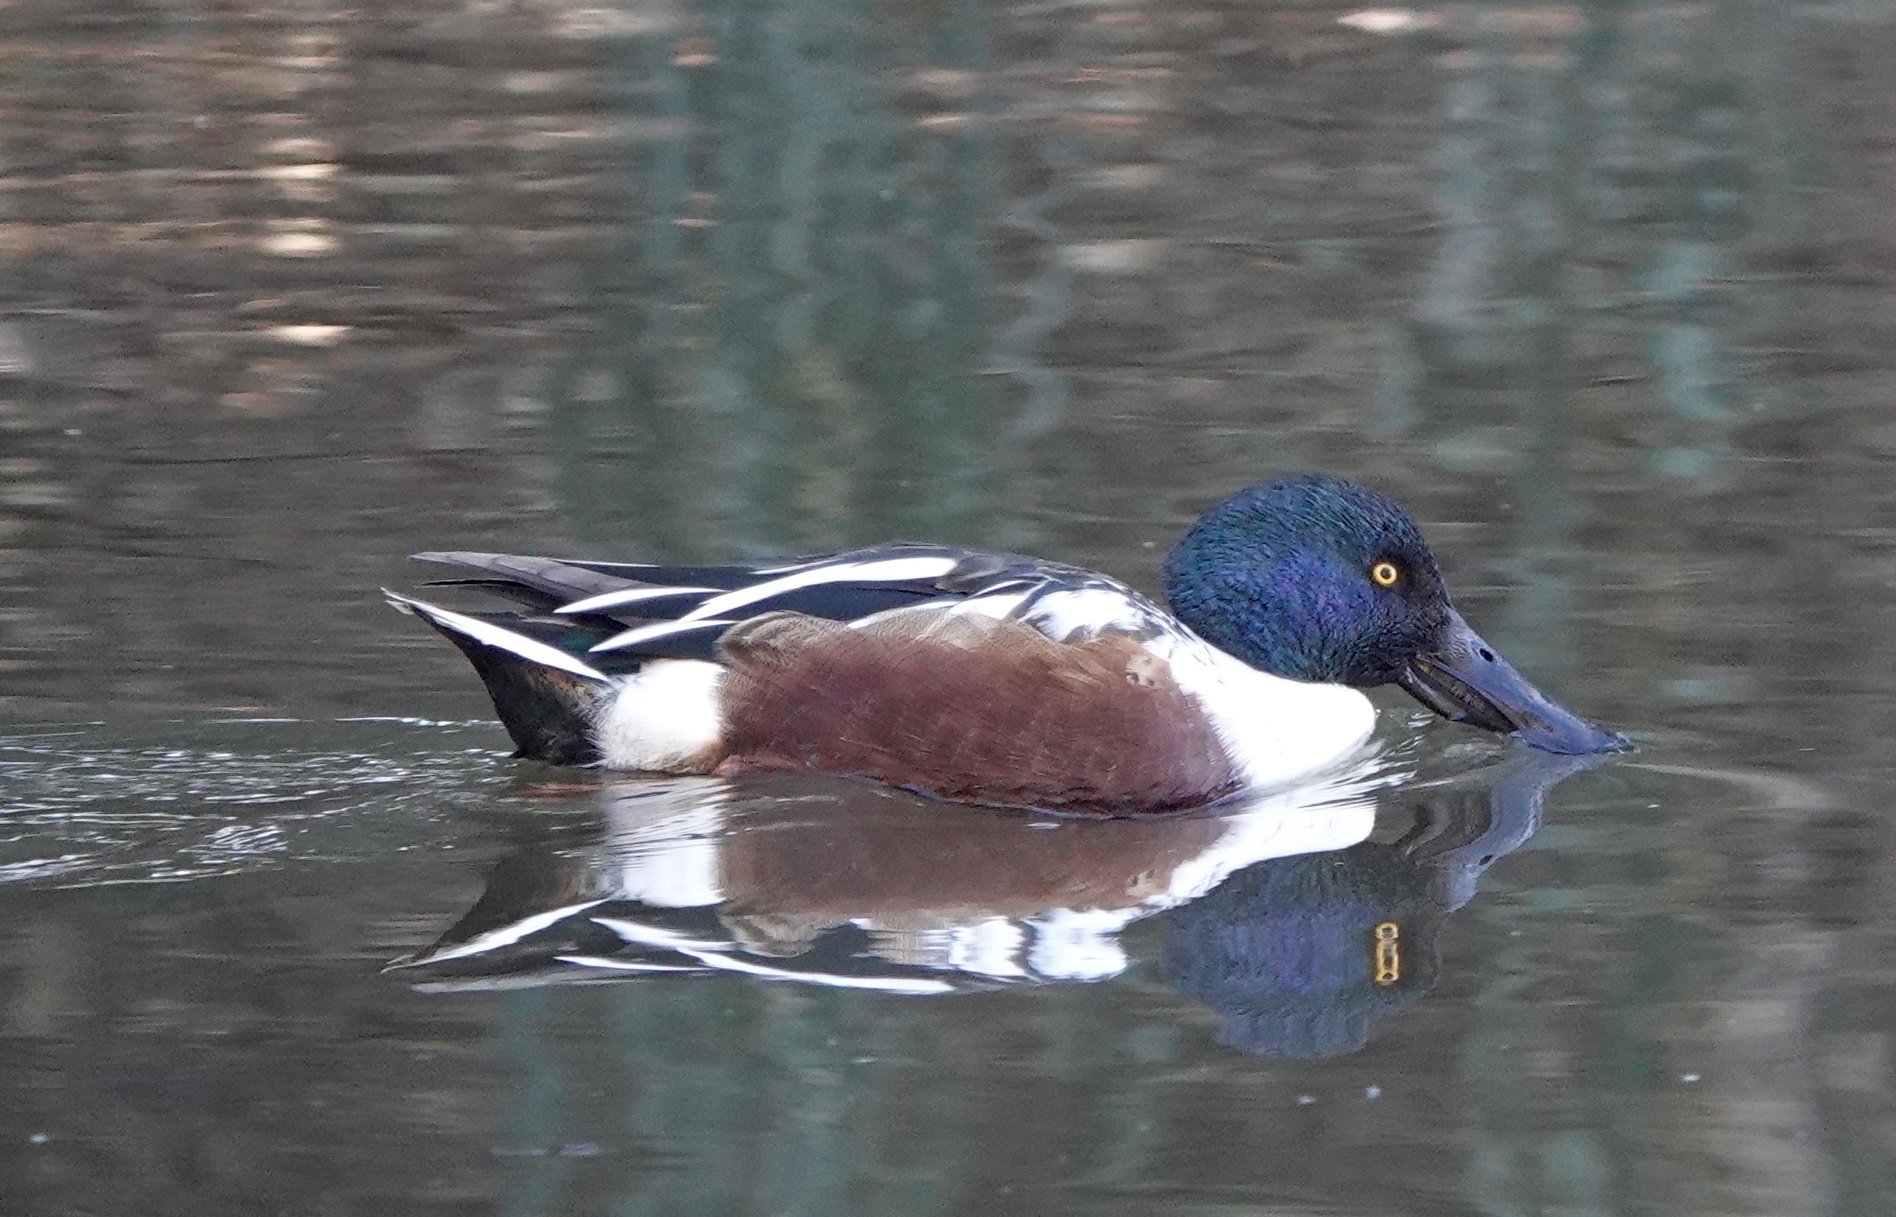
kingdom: Animalia
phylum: Chordata
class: Aves
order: Anseriformes
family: Anatidae
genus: Spatula
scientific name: Spatula clypeata
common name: Northern shoveler
